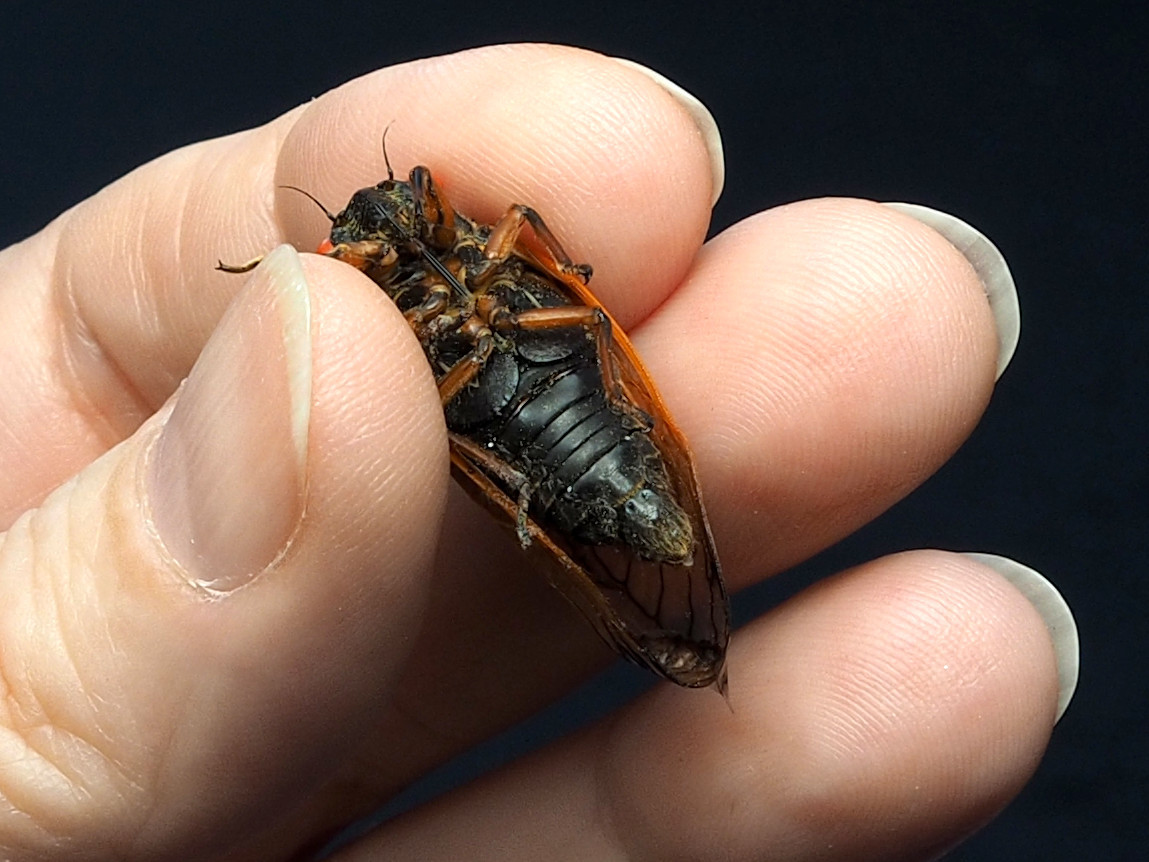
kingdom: Animalia
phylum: Arthropoda
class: Insecta
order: Hemiptera
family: Cicadidae
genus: Magicicada
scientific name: Magicicada cassini
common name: Cassin's 17-year cicada
